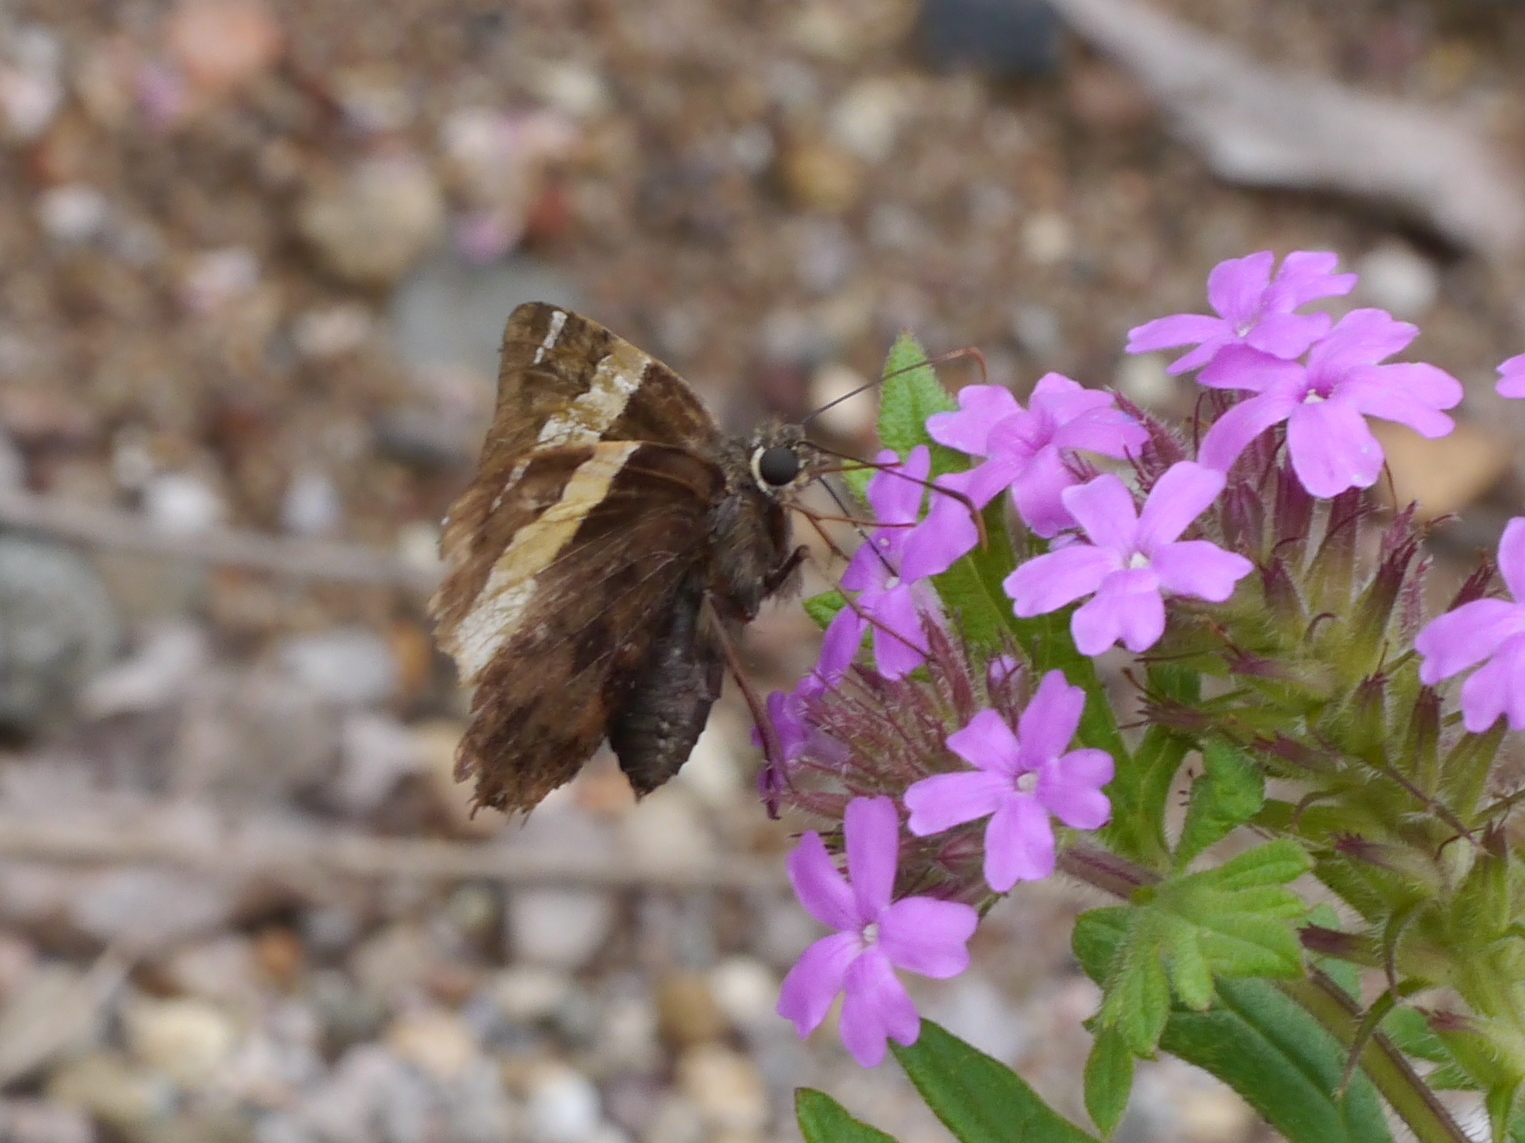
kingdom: Animalia
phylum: Arthropoda
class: Arachnida
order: Scorpiones
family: Bothriuridae
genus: Telegonus
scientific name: Telegonus cellus
